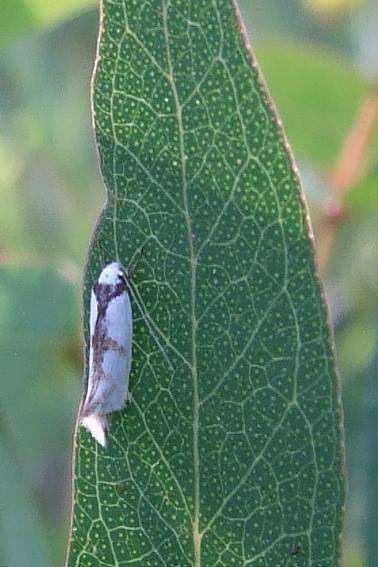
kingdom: Animalia
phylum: Arthropoda
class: Insecta
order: Lepidoptera
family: Oecophoridae
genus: Ocystola
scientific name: Ocystola paulinella
